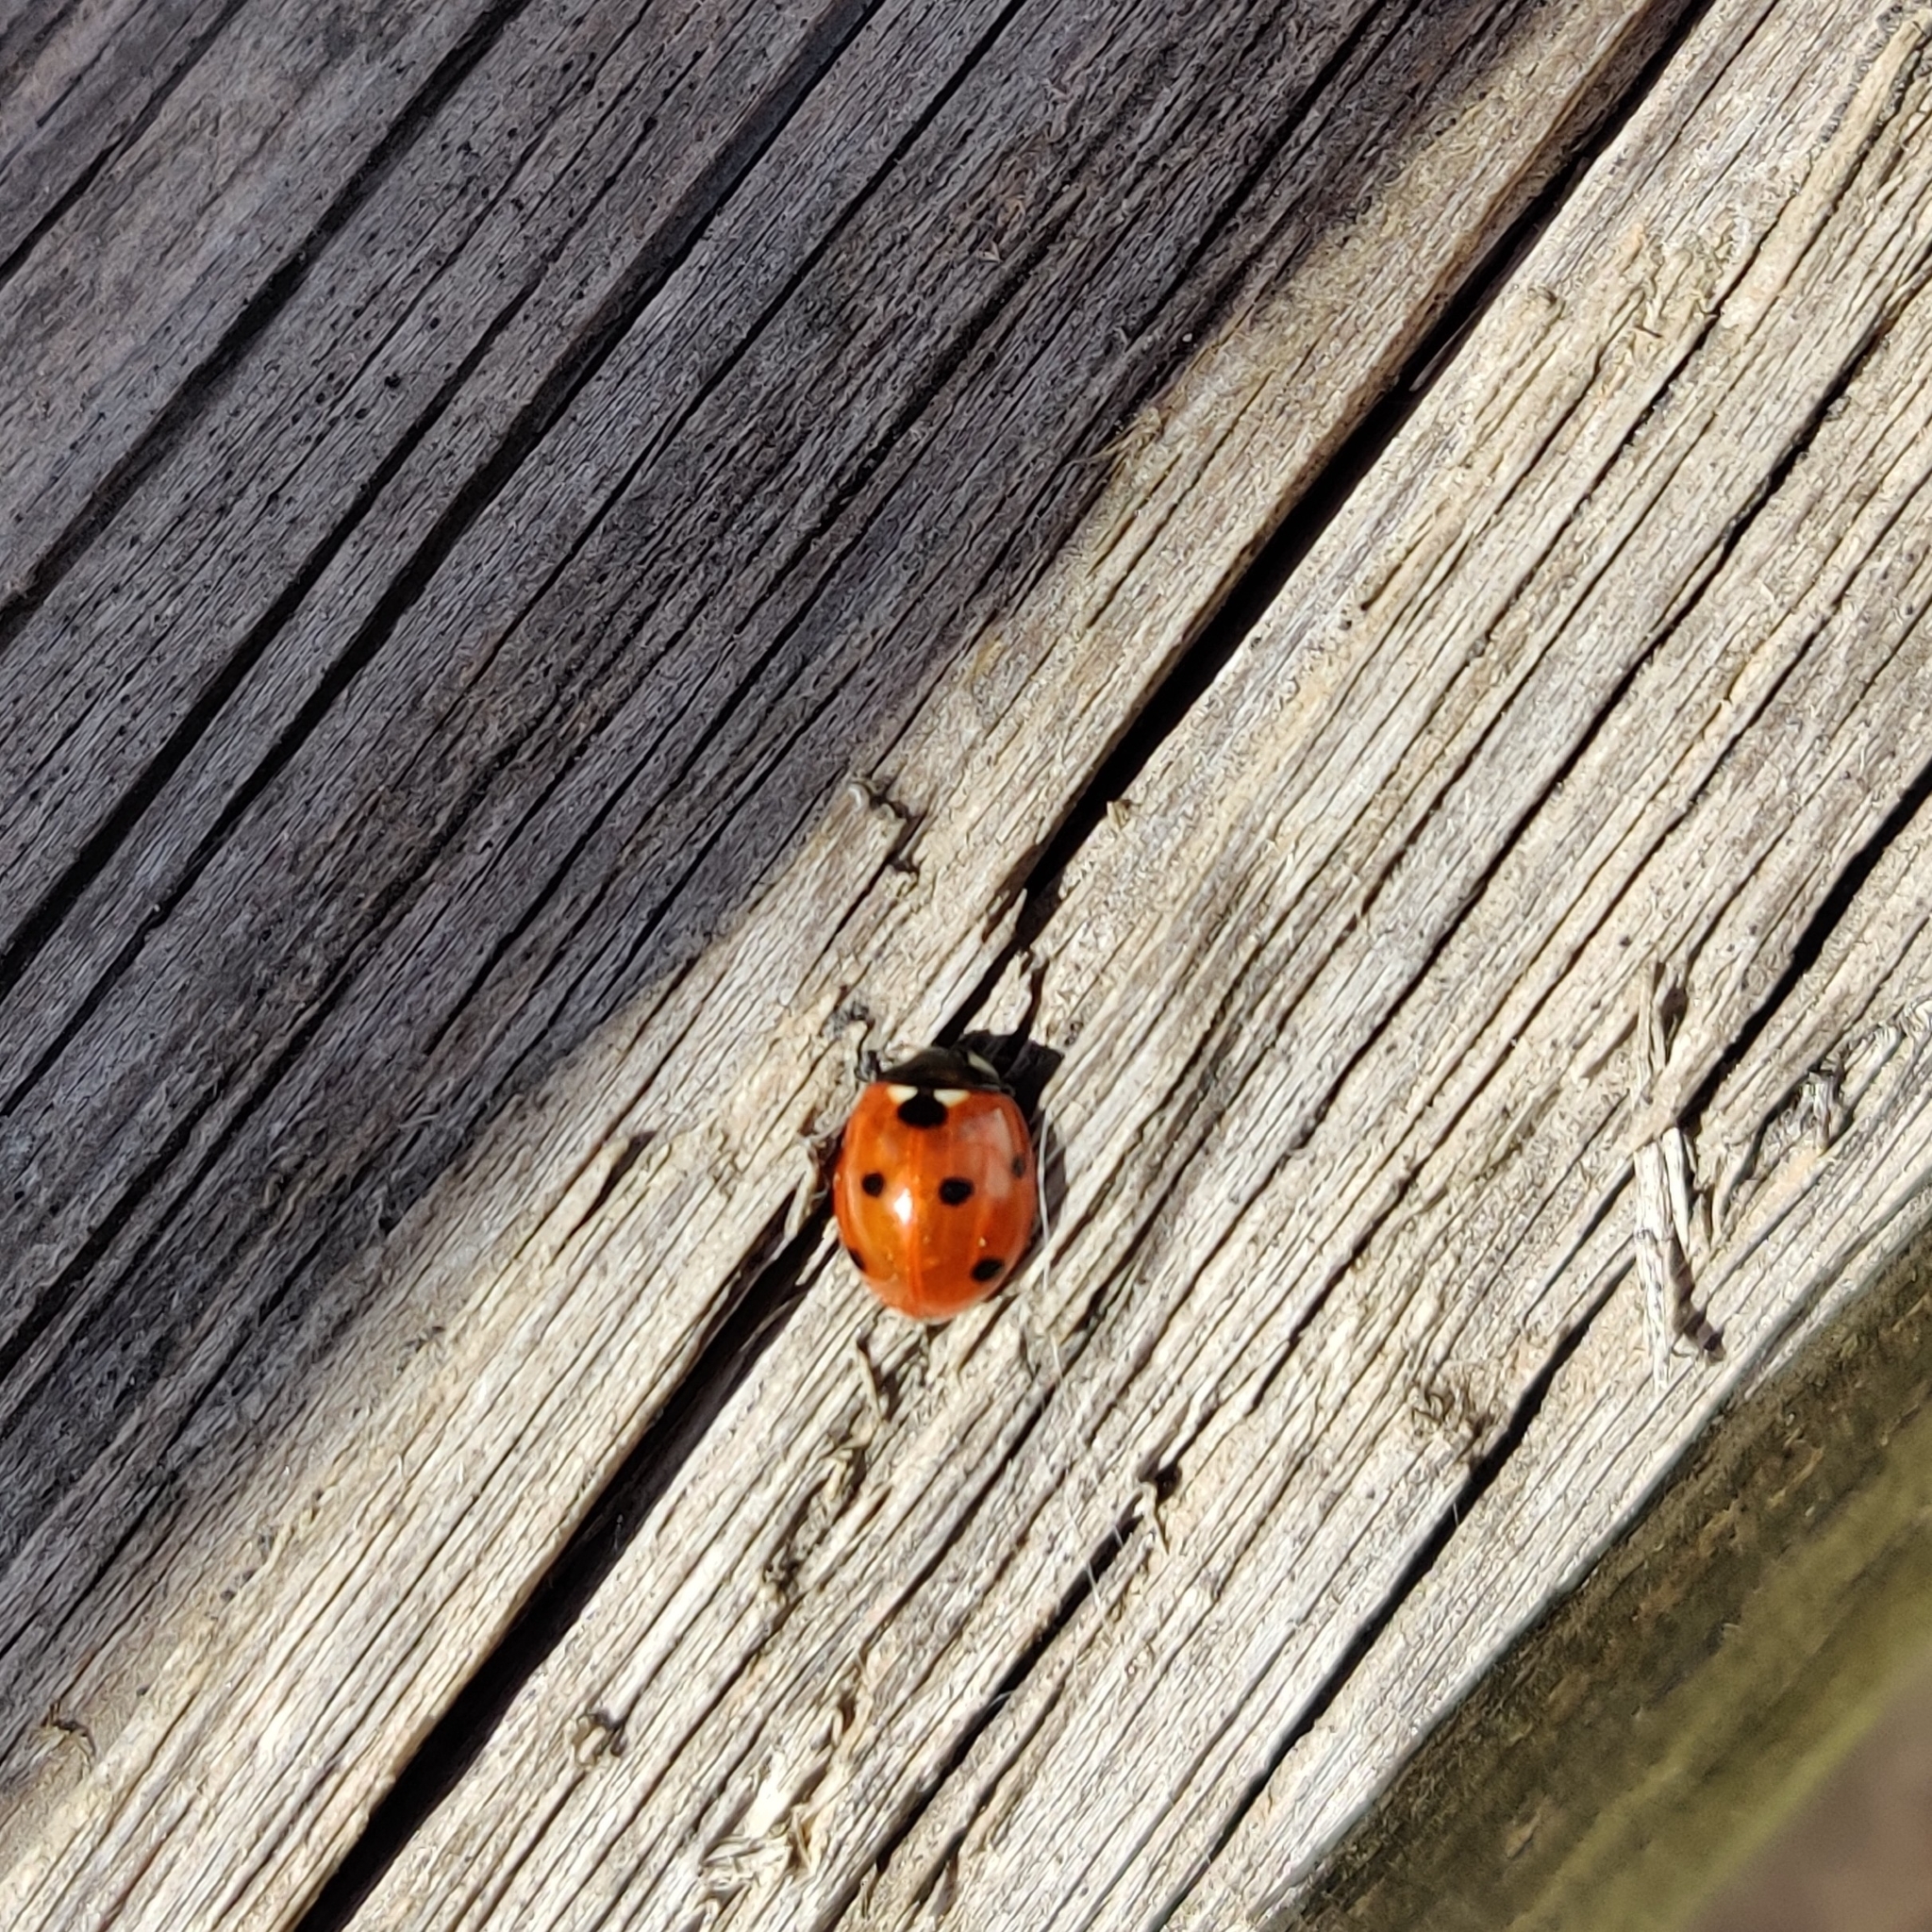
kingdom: Animalia
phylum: Arthropoda
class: Insecta
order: Coleoptera
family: Coccinellidae
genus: Coccinella
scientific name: Coccinella septempunctata
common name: Sevenspotted lady beetle
